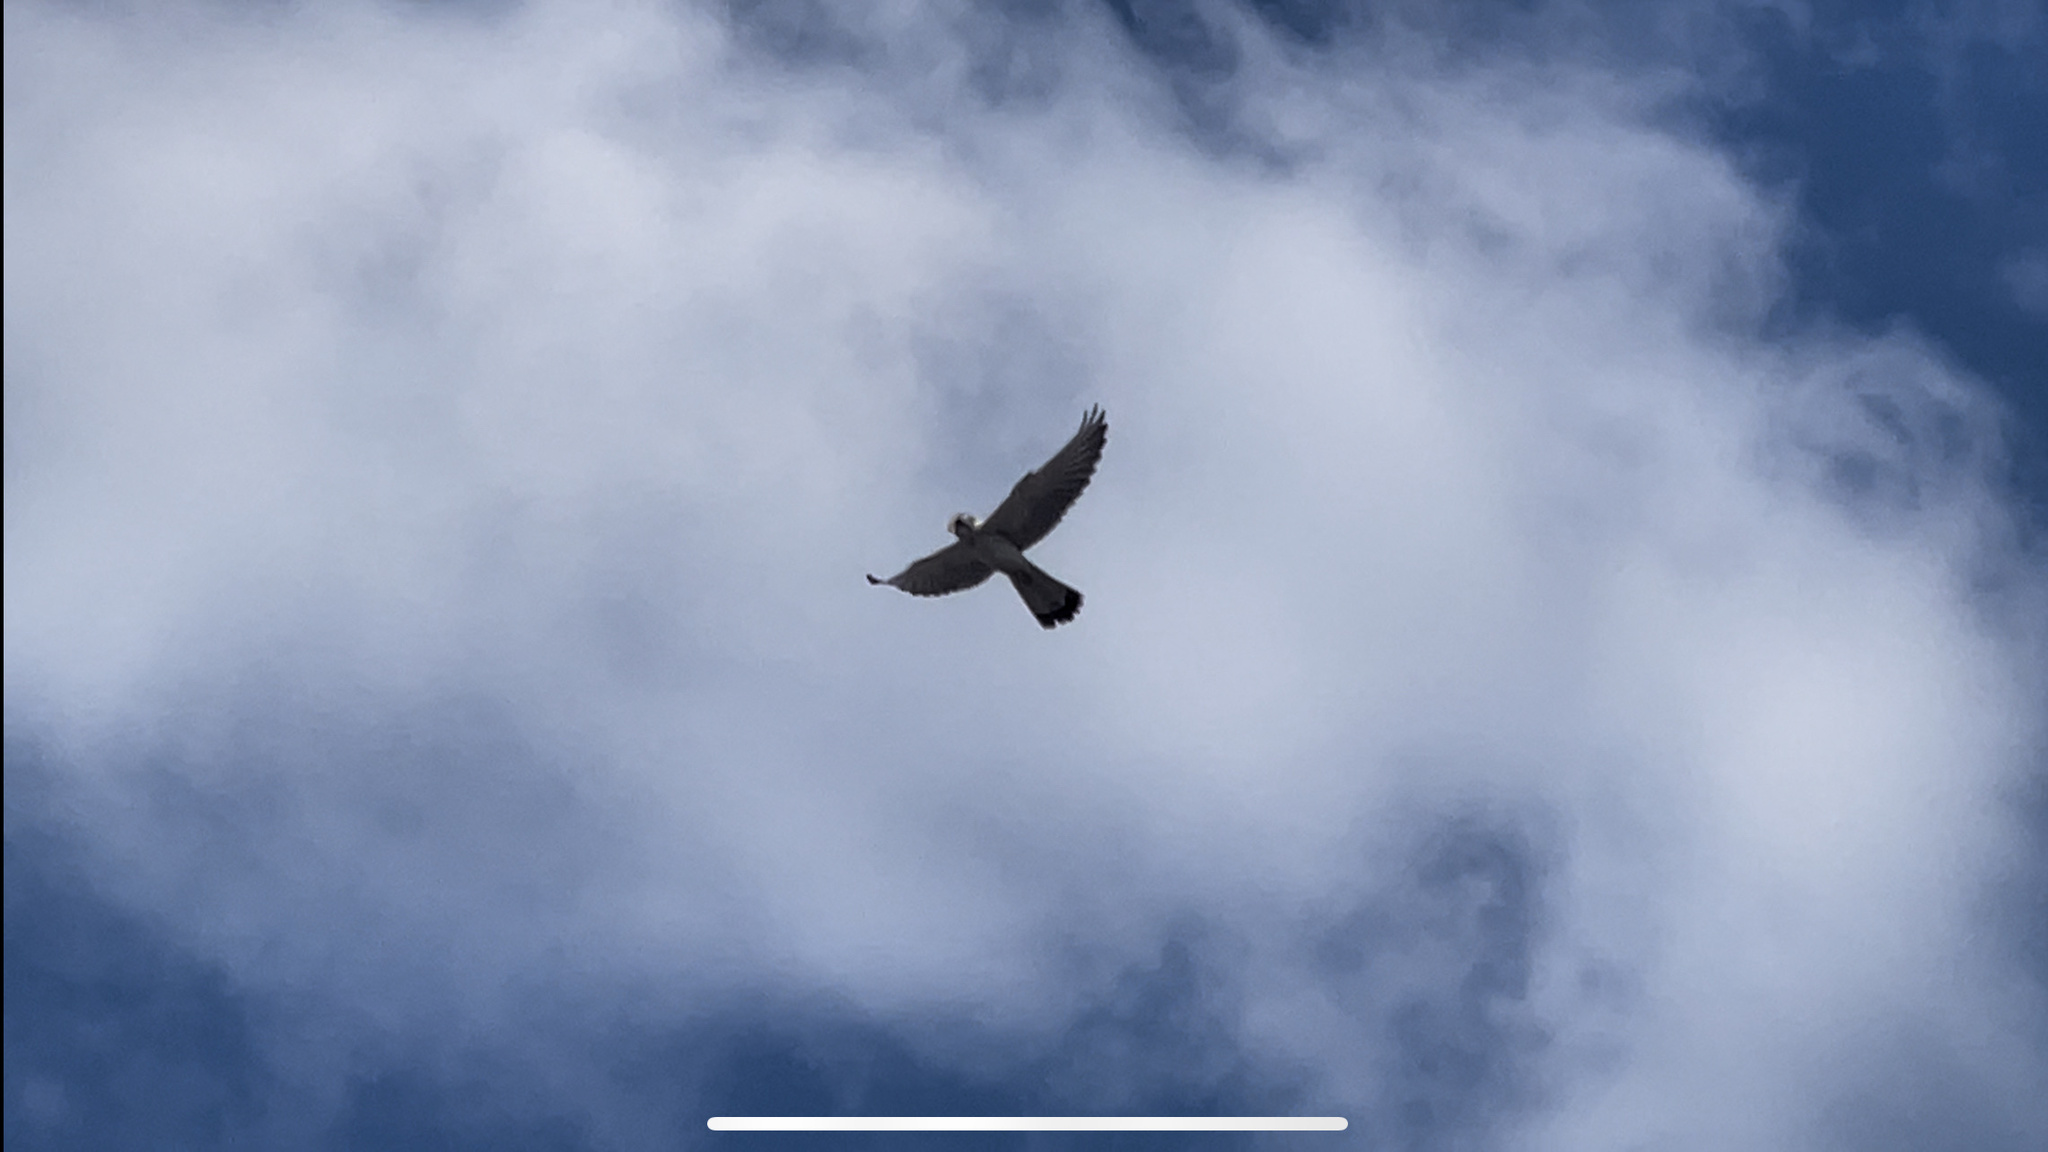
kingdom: Animalia
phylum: Chordata
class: Aves
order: Falconiformes
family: Falconidae
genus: Falco
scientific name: Falco cenchroides
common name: Nankeen kestrel
